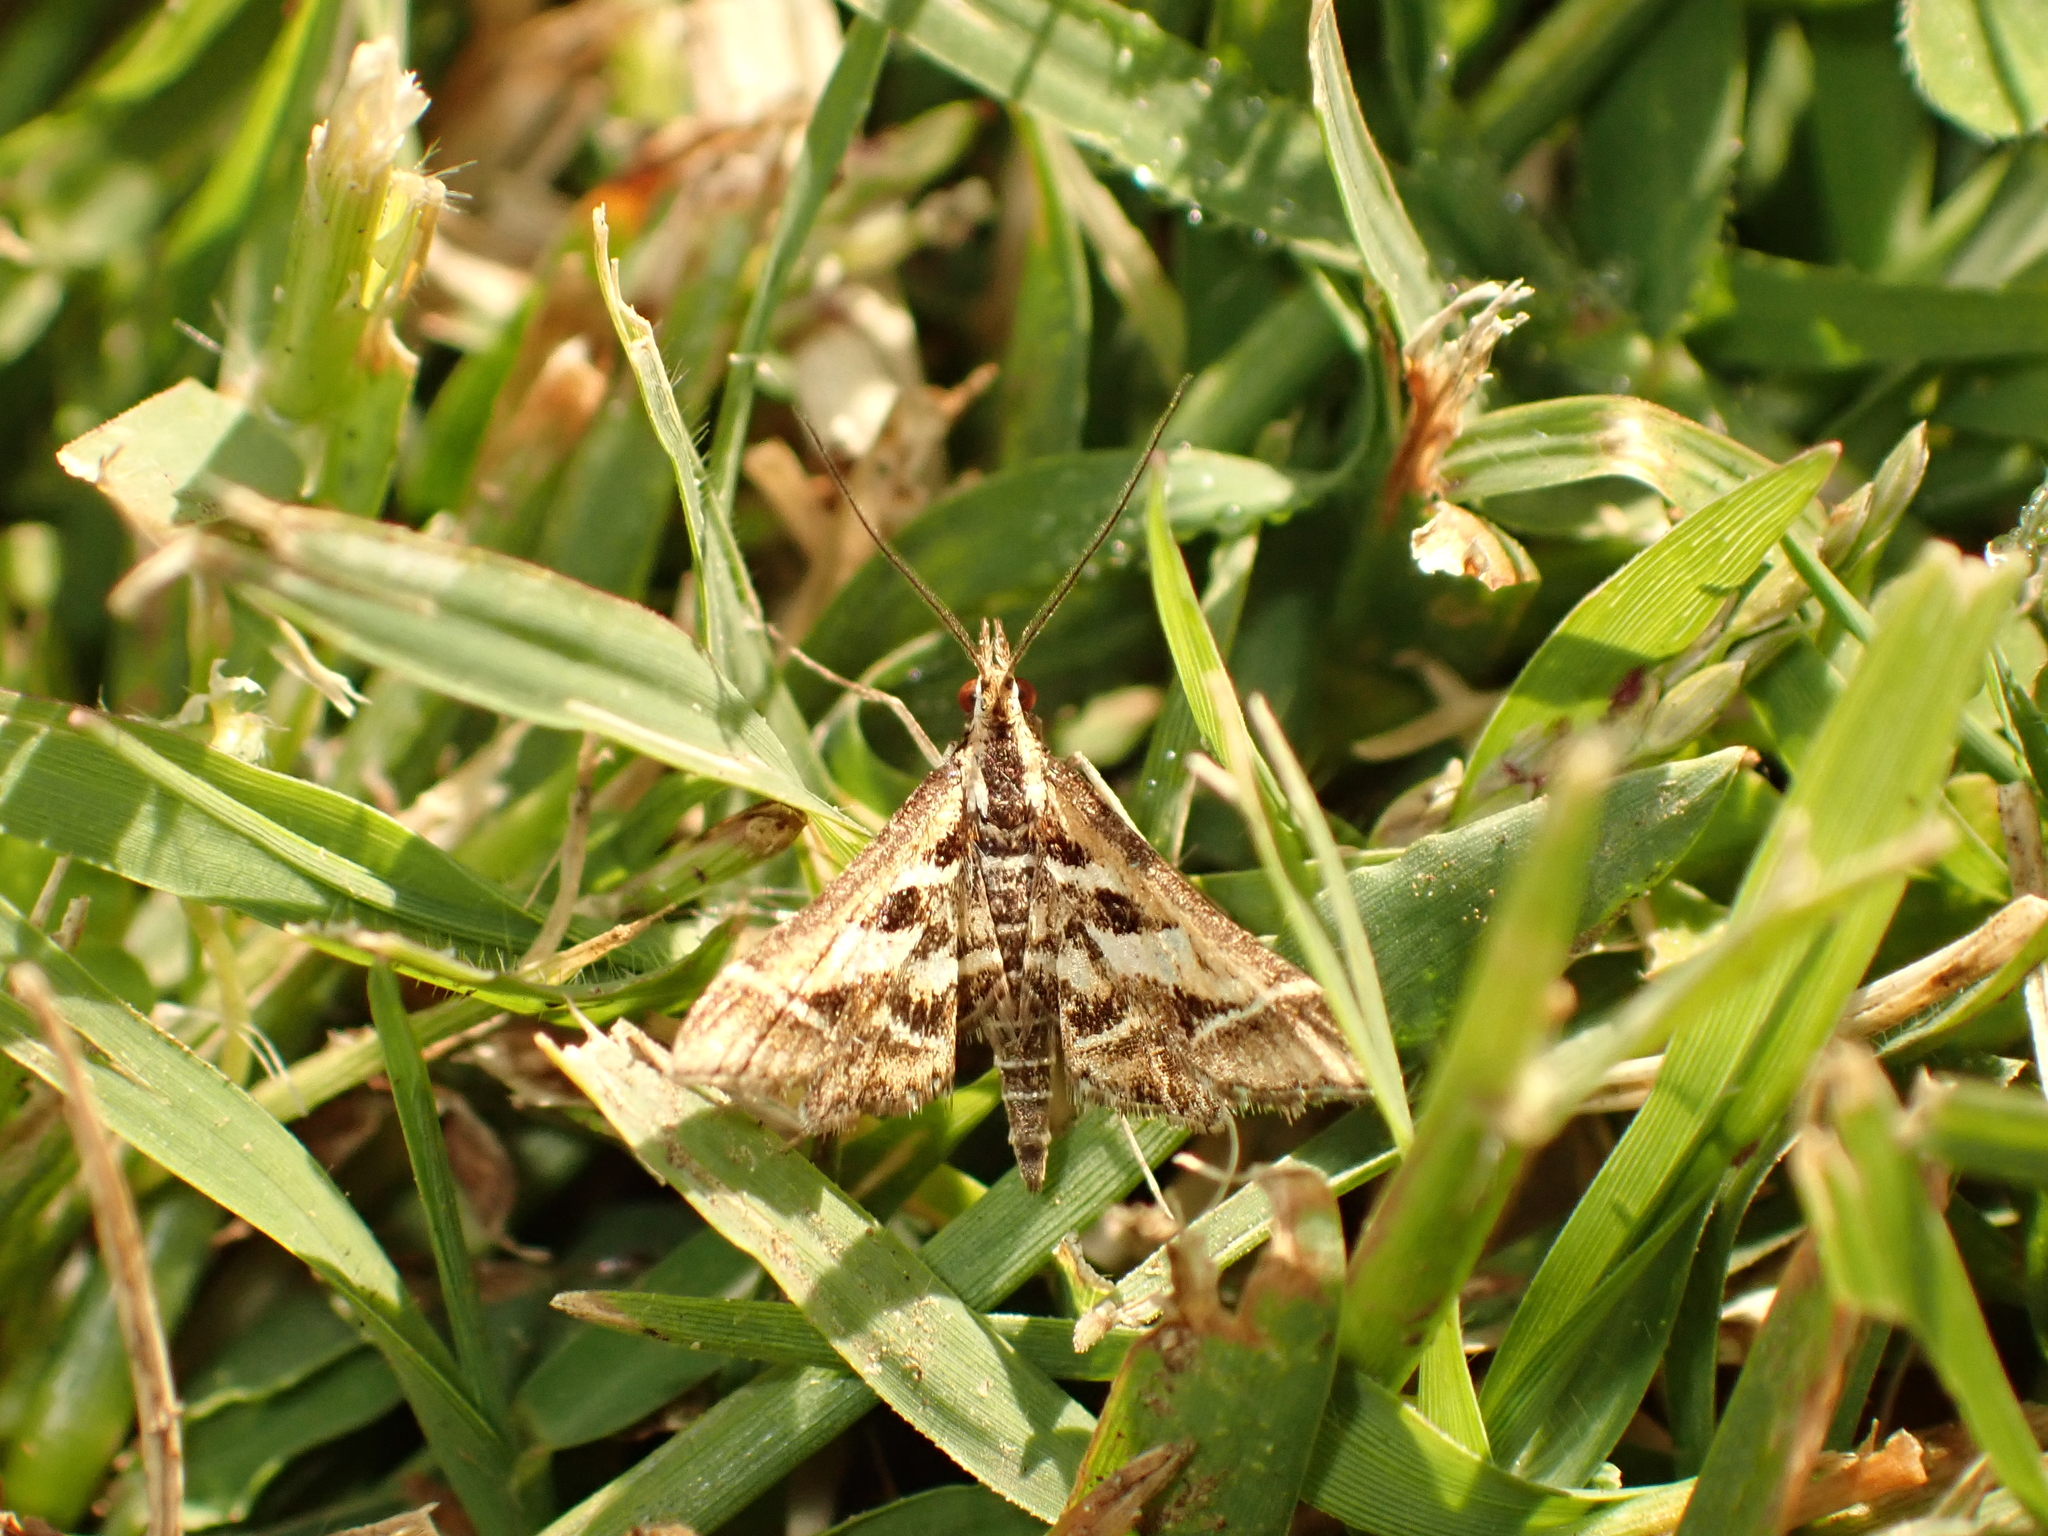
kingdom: Animalia
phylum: Arthropoda
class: Insecta
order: Lepidoptera
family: Crambidae
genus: Diasemia
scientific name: Diasemia grammalis
